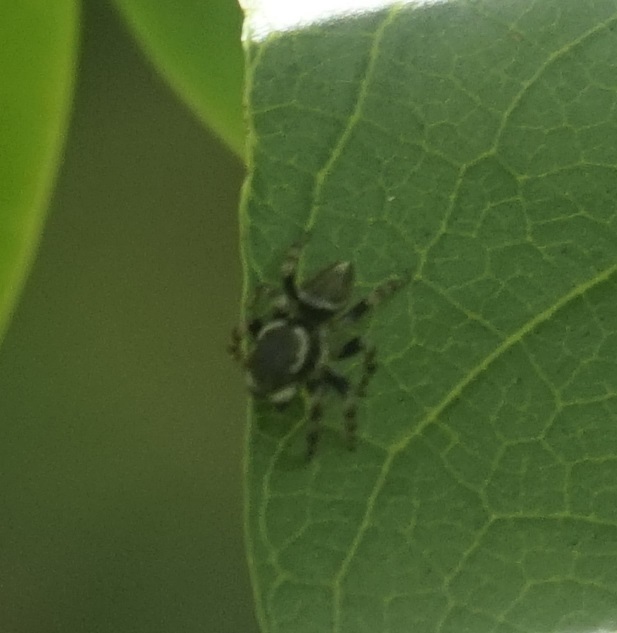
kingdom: Animalia
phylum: Arthropoda
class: Arachnida
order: Araneae
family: Salticidae
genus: Maratus
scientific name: Maratus scutulatus
